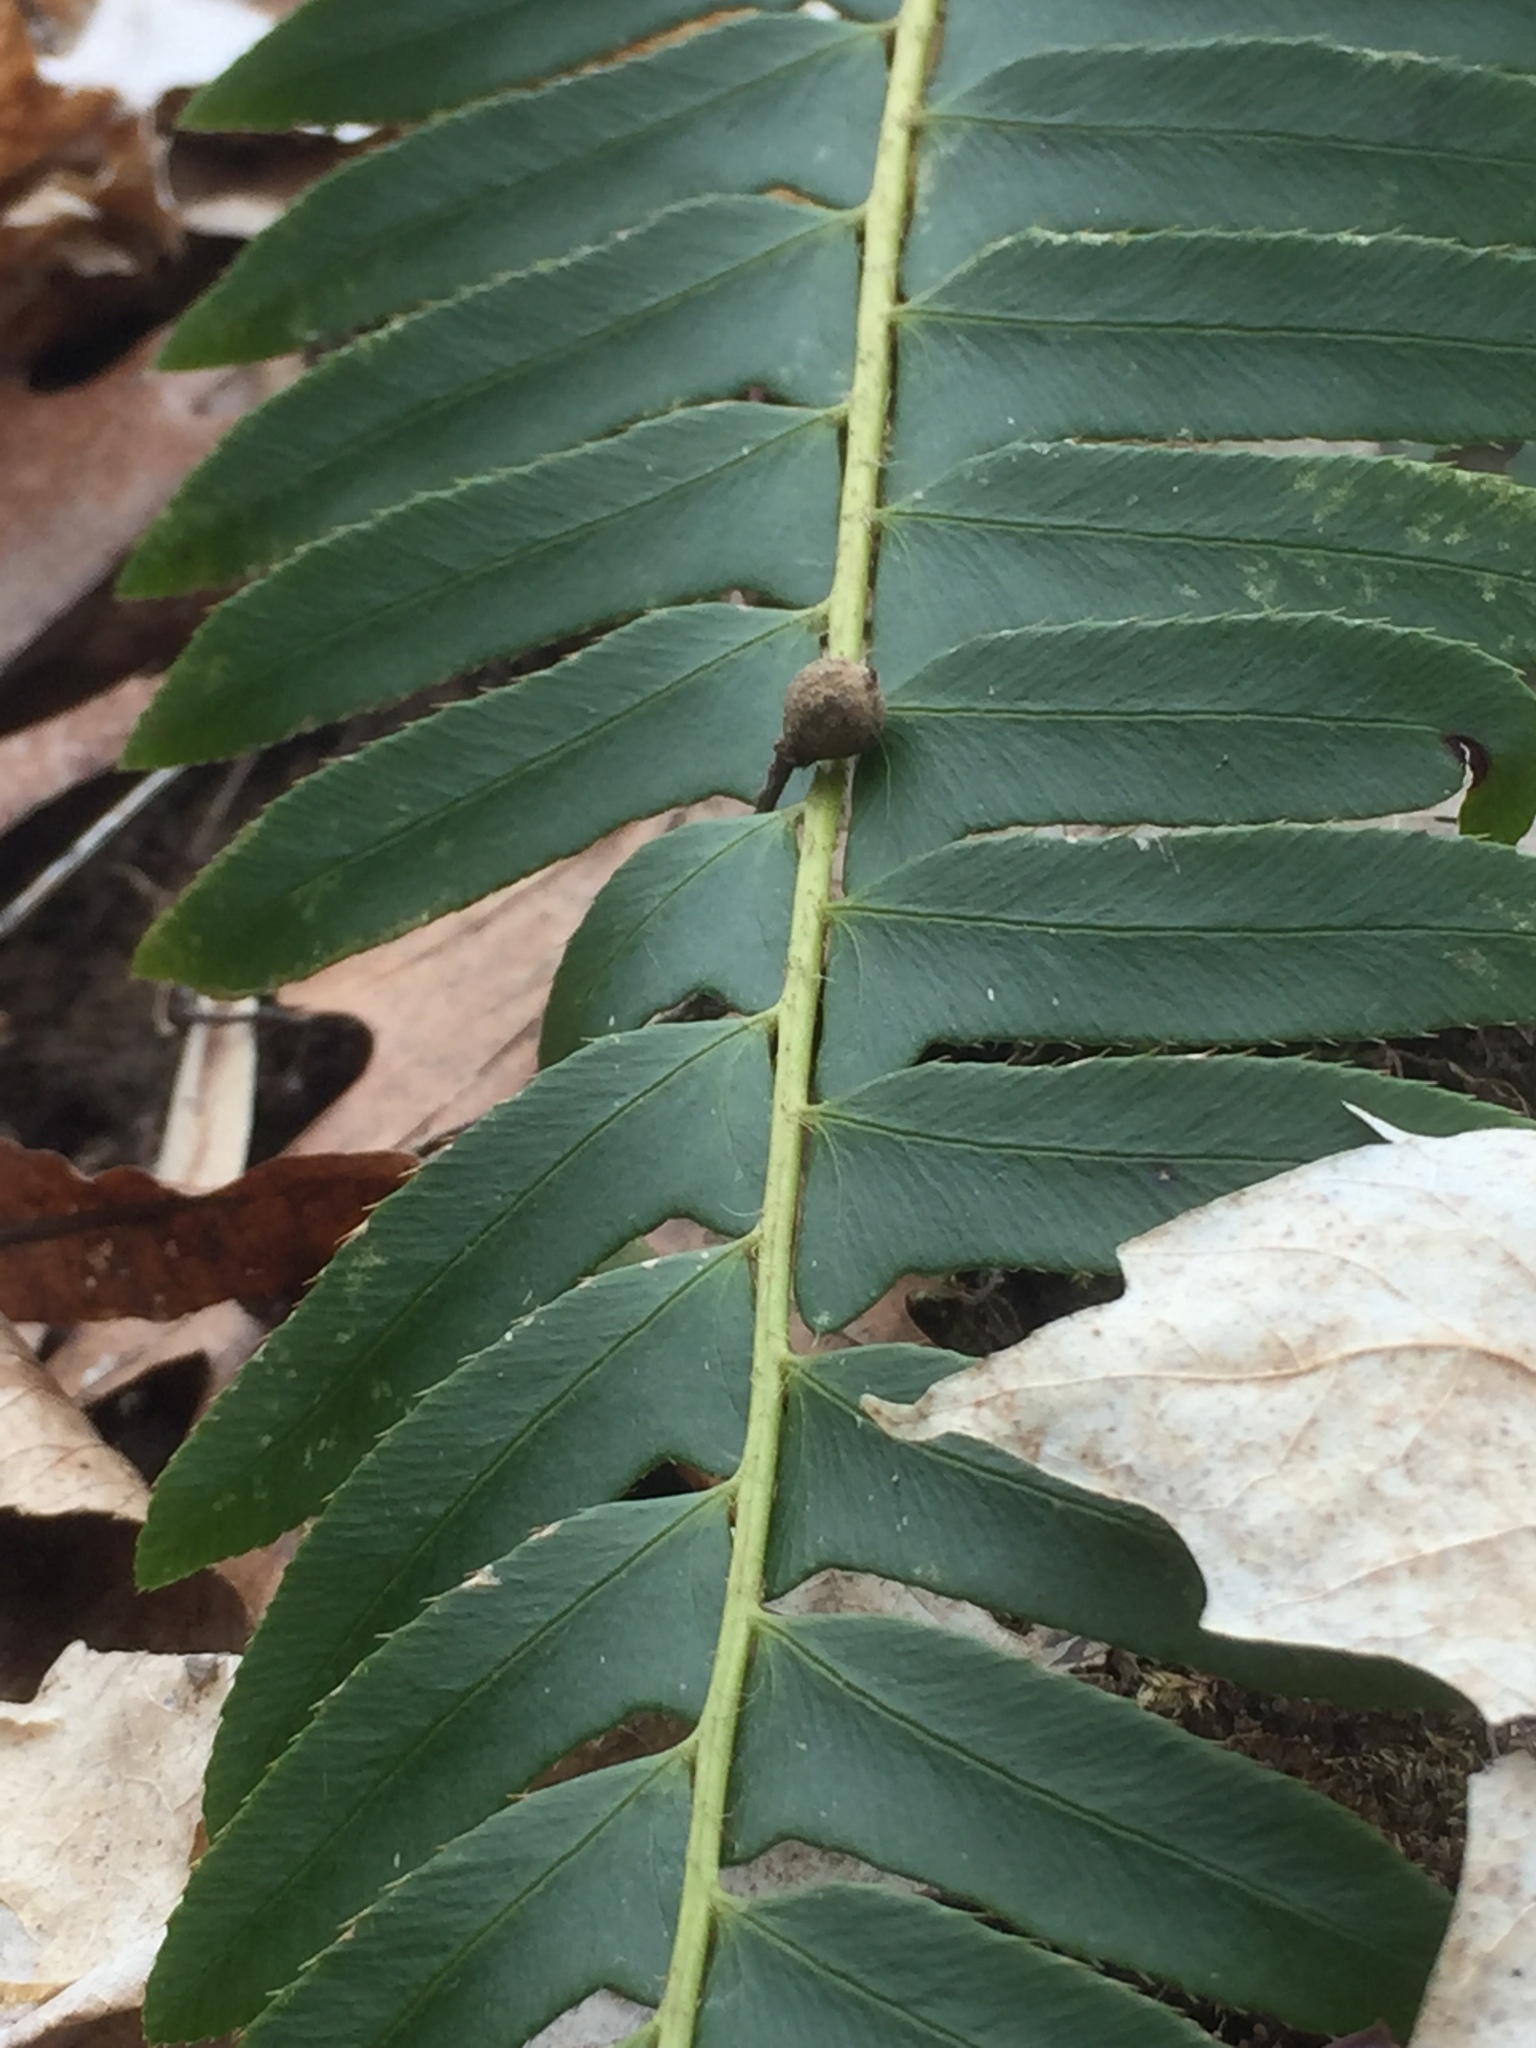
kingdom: Plantae
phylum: Tracheophyta
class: Polypodiopsida
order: Polypodiales
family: Dryopteridaceae
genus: Polystichum
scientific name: Polystichum acrostichoides
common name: Christmas fern
